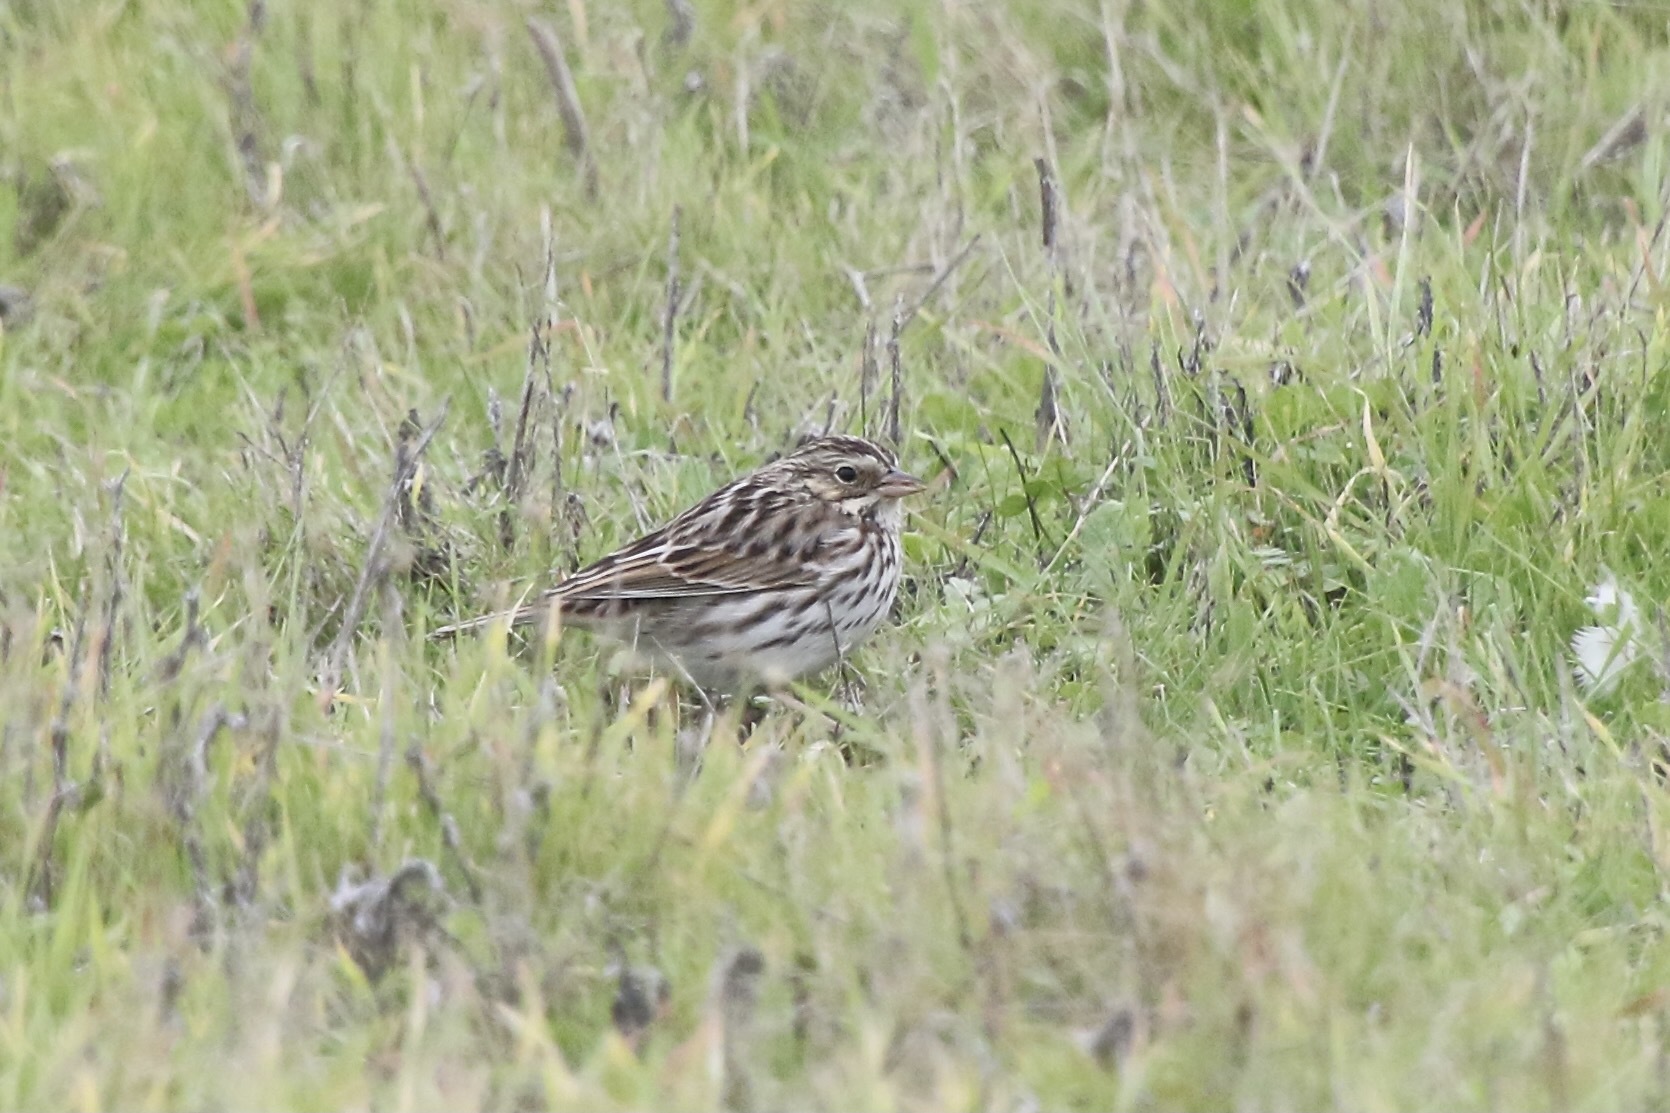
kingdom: Animalia
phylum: Chordata
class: Aves
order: Passeriformes
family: Passerellidae
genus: Passerculus
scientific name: Passerculus sandwichensis
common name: Savannah sparrow
